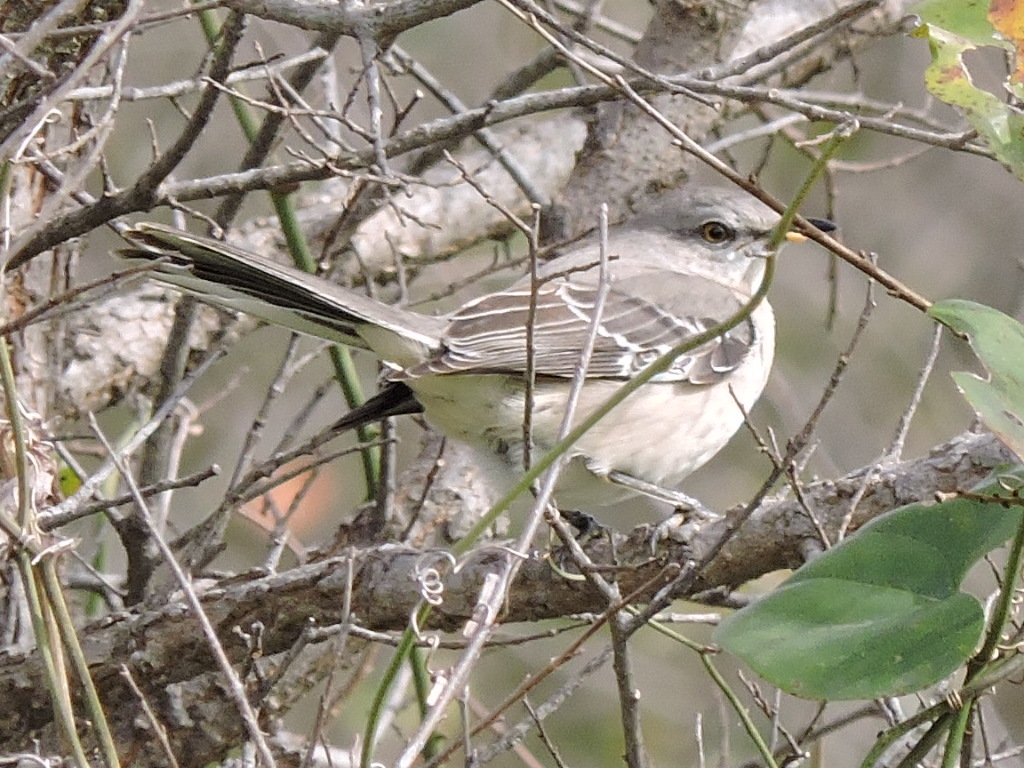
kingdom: Animalia
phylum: Chordata
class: Aves
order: Passeriformes
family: Mimidae
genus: Mimus
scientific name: Mimus polyglottos
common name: Northern mockingbird
